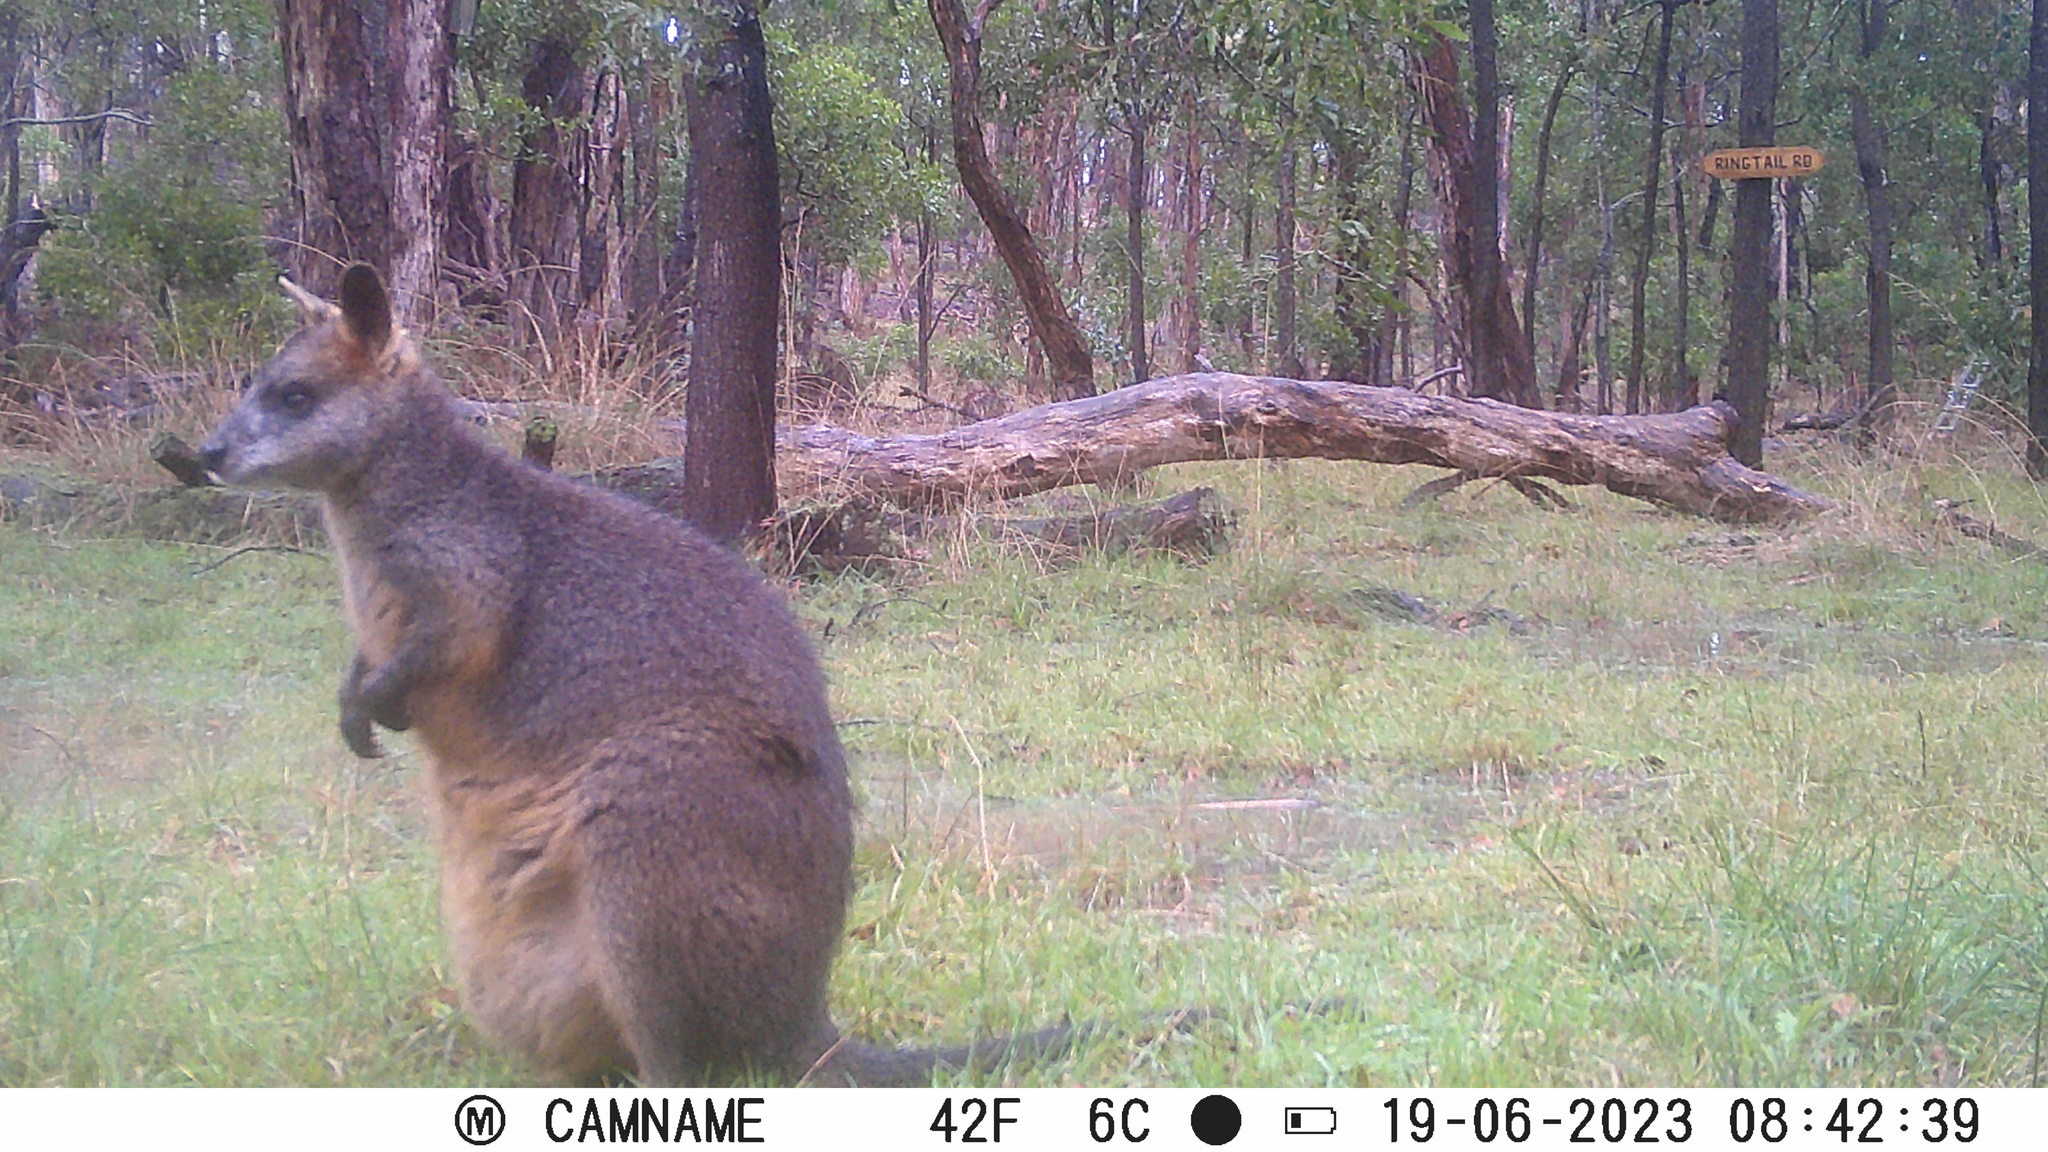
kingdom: Animalia
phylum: Chordata
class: Mammalia
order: Diprotodontia
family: Macropodidae
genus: Wallabia
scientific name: Wallabia bicolor
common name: Swamp wallaby
